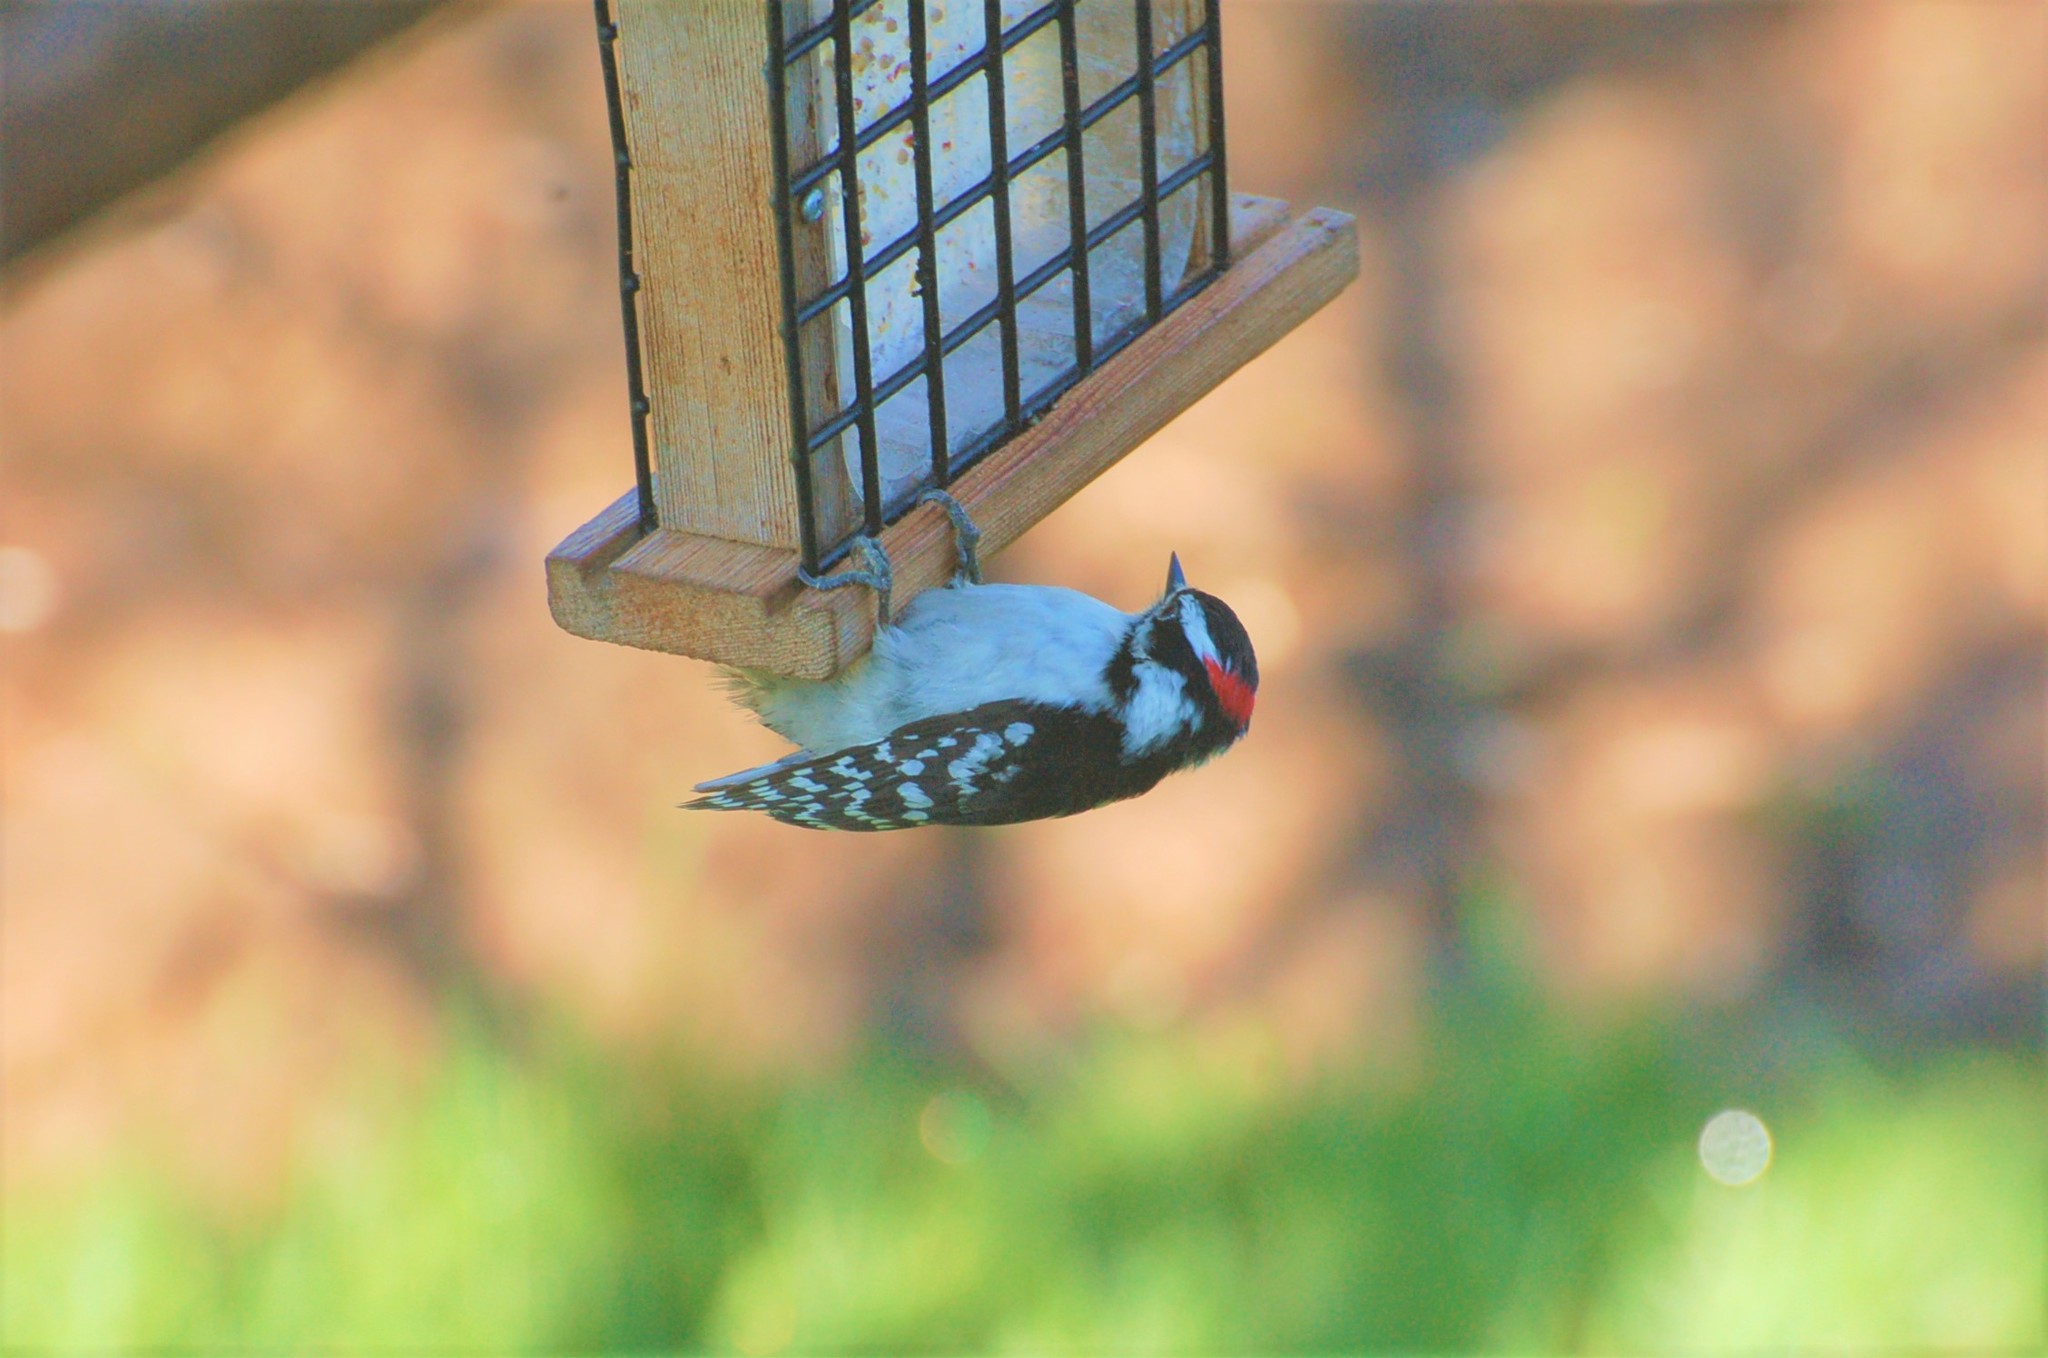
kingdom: Animalia
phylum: Chordata
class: Aves
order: Piciformes
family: Picidae
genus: Dryobates
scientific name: Dryobates pubescens
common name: Downy woodpecker
